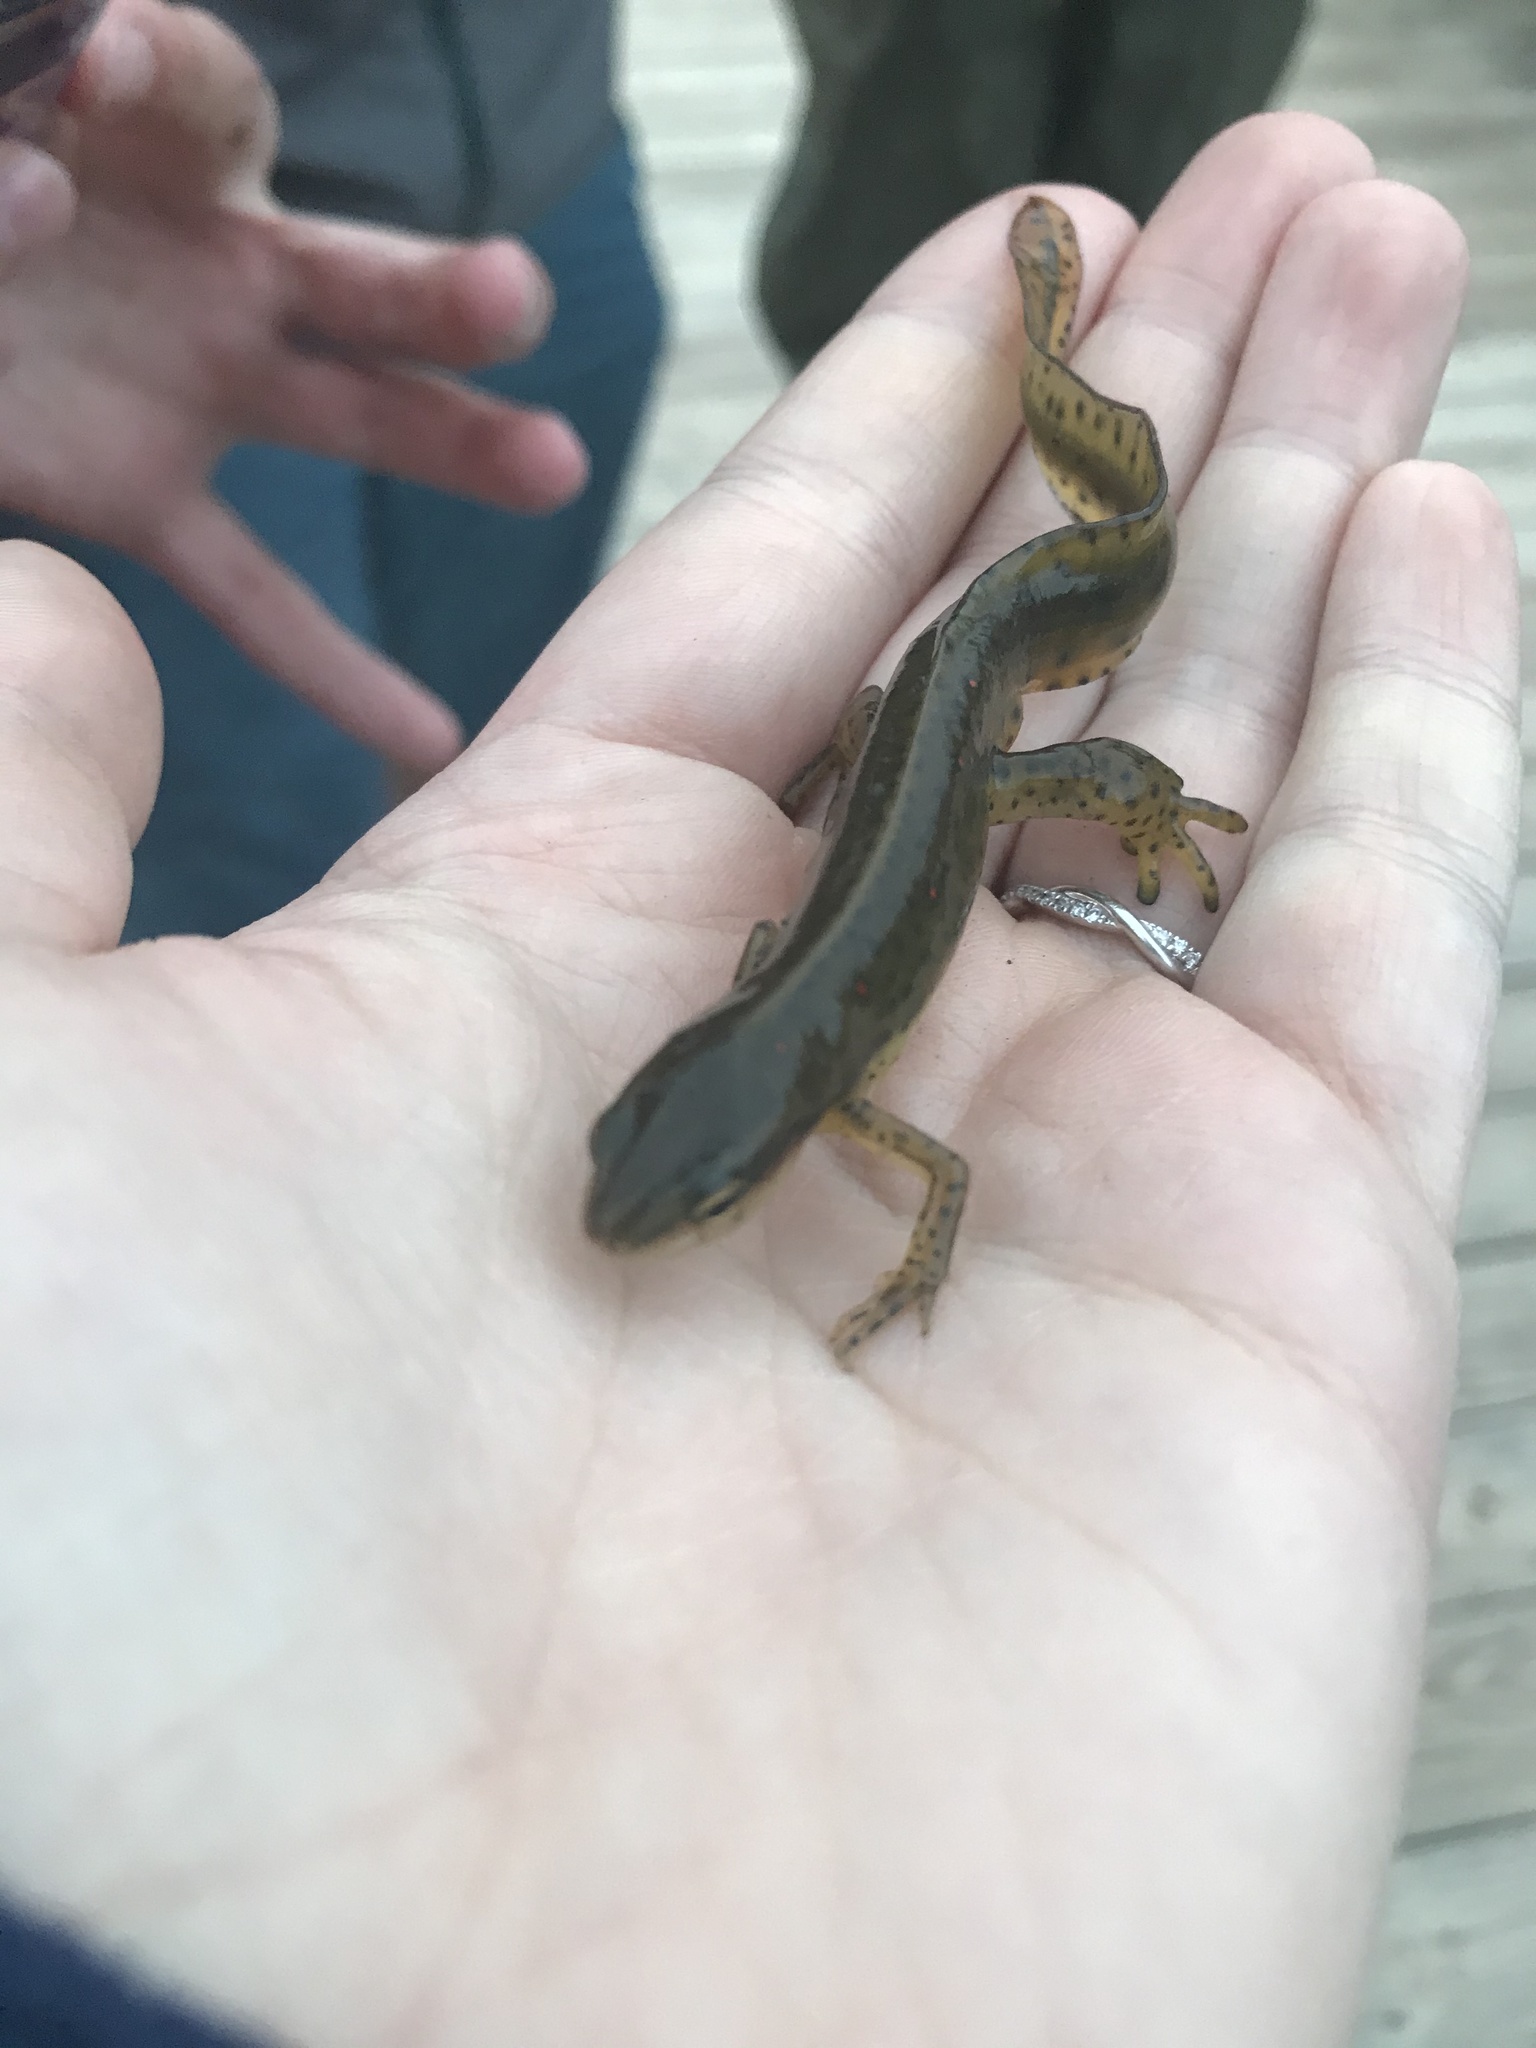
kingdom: Animalia
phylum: Chordata
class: Amphibia
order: Caudata
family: Salamandridae
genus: Notophthalmus
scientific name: Notophthalmus viridescens
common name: Eastern newt
